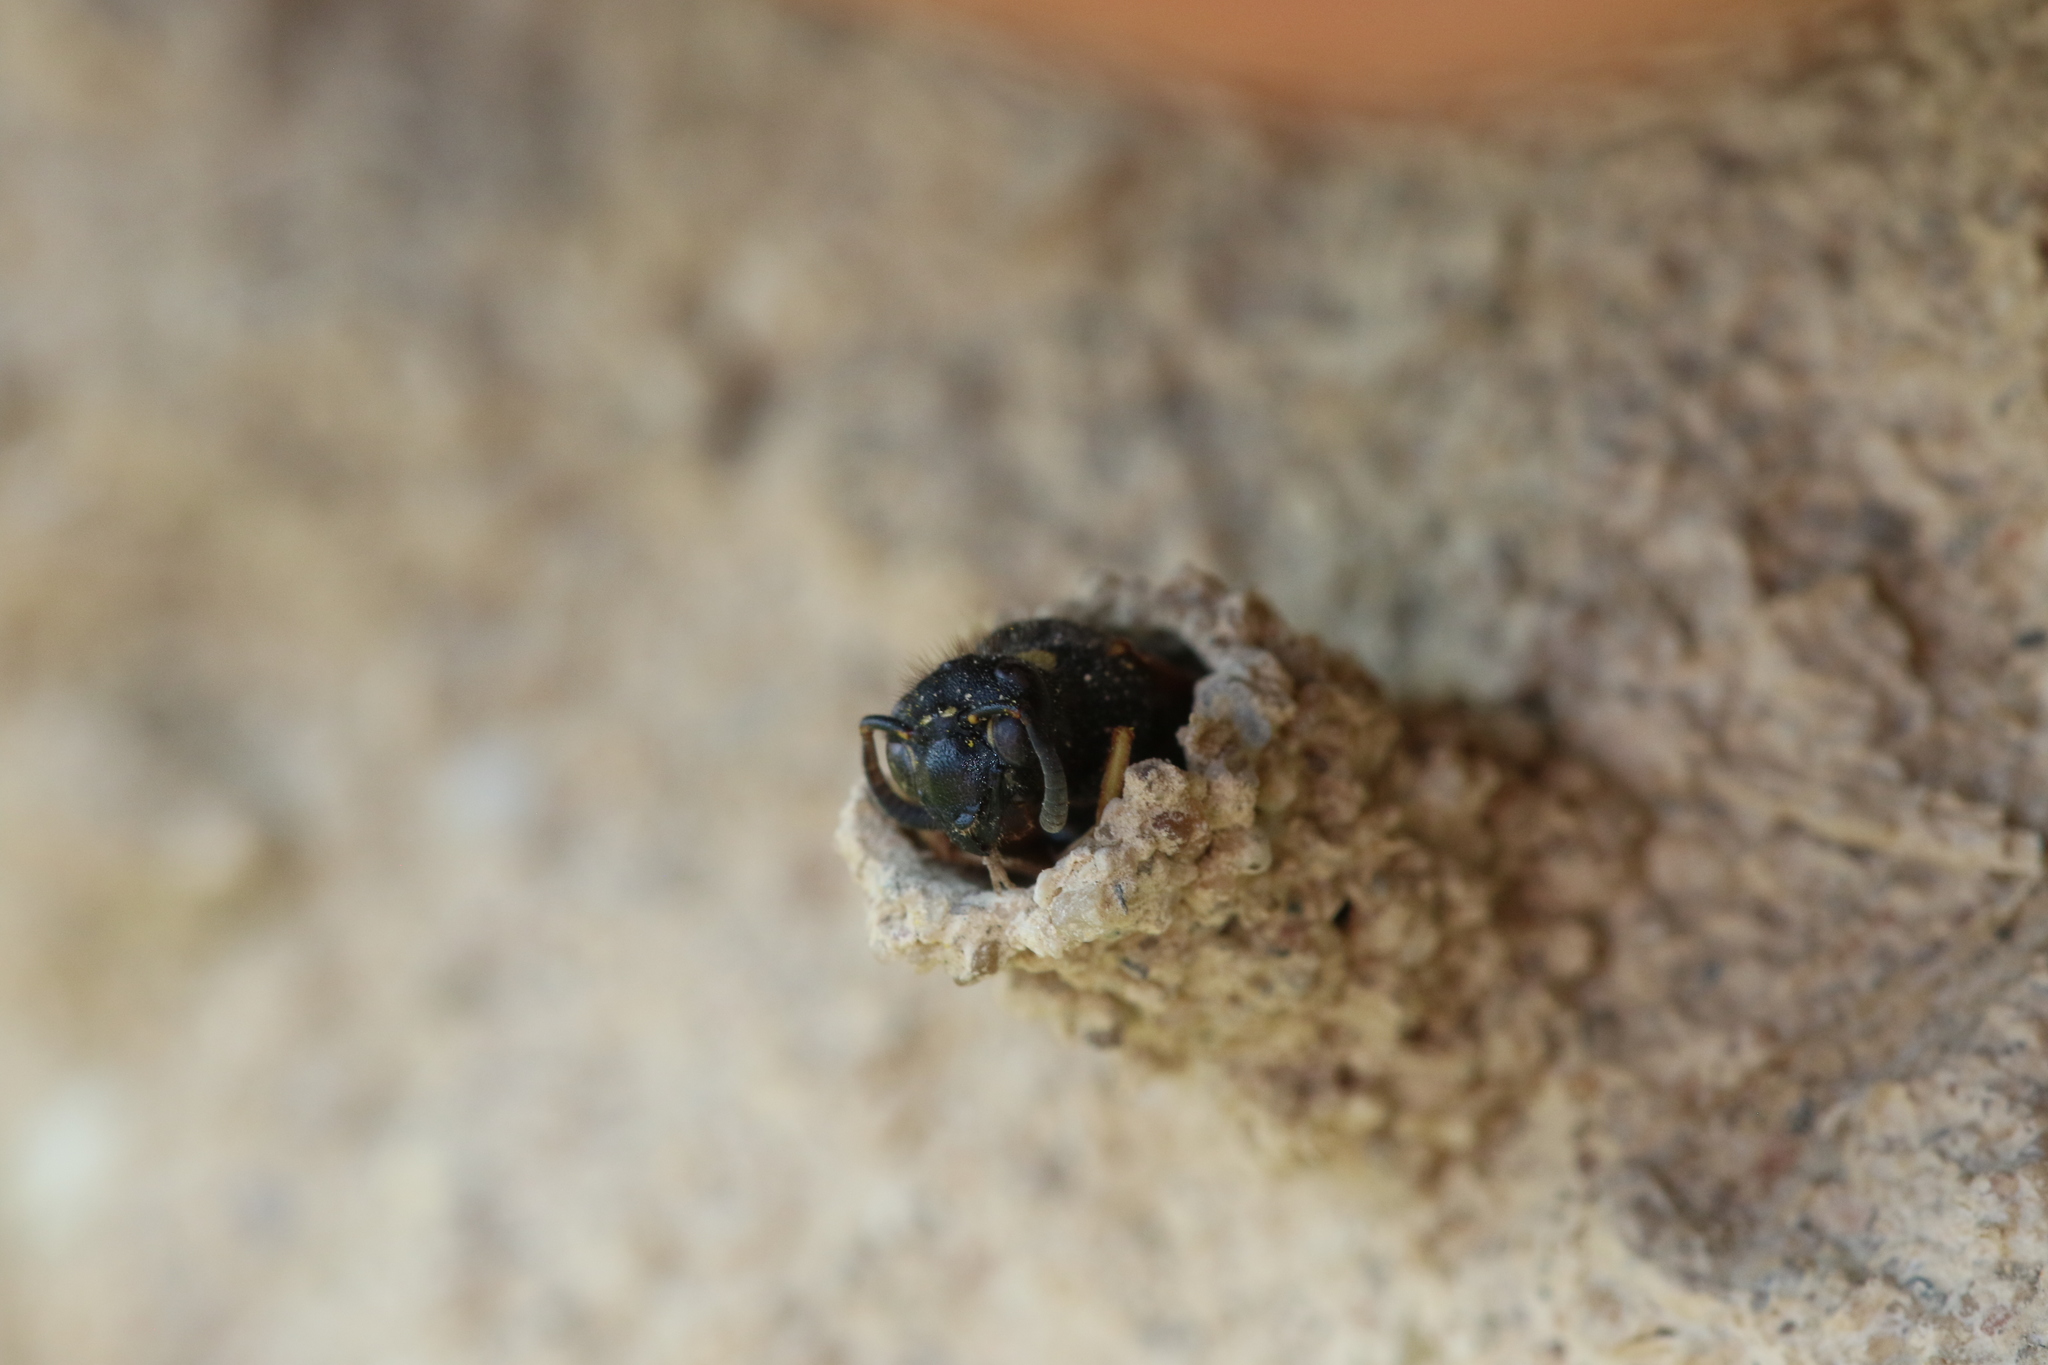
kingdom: Animalia
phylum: Arthropoda
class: Insecta
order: Hymenoptera
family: Eumenidae
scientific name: Eumenidae
